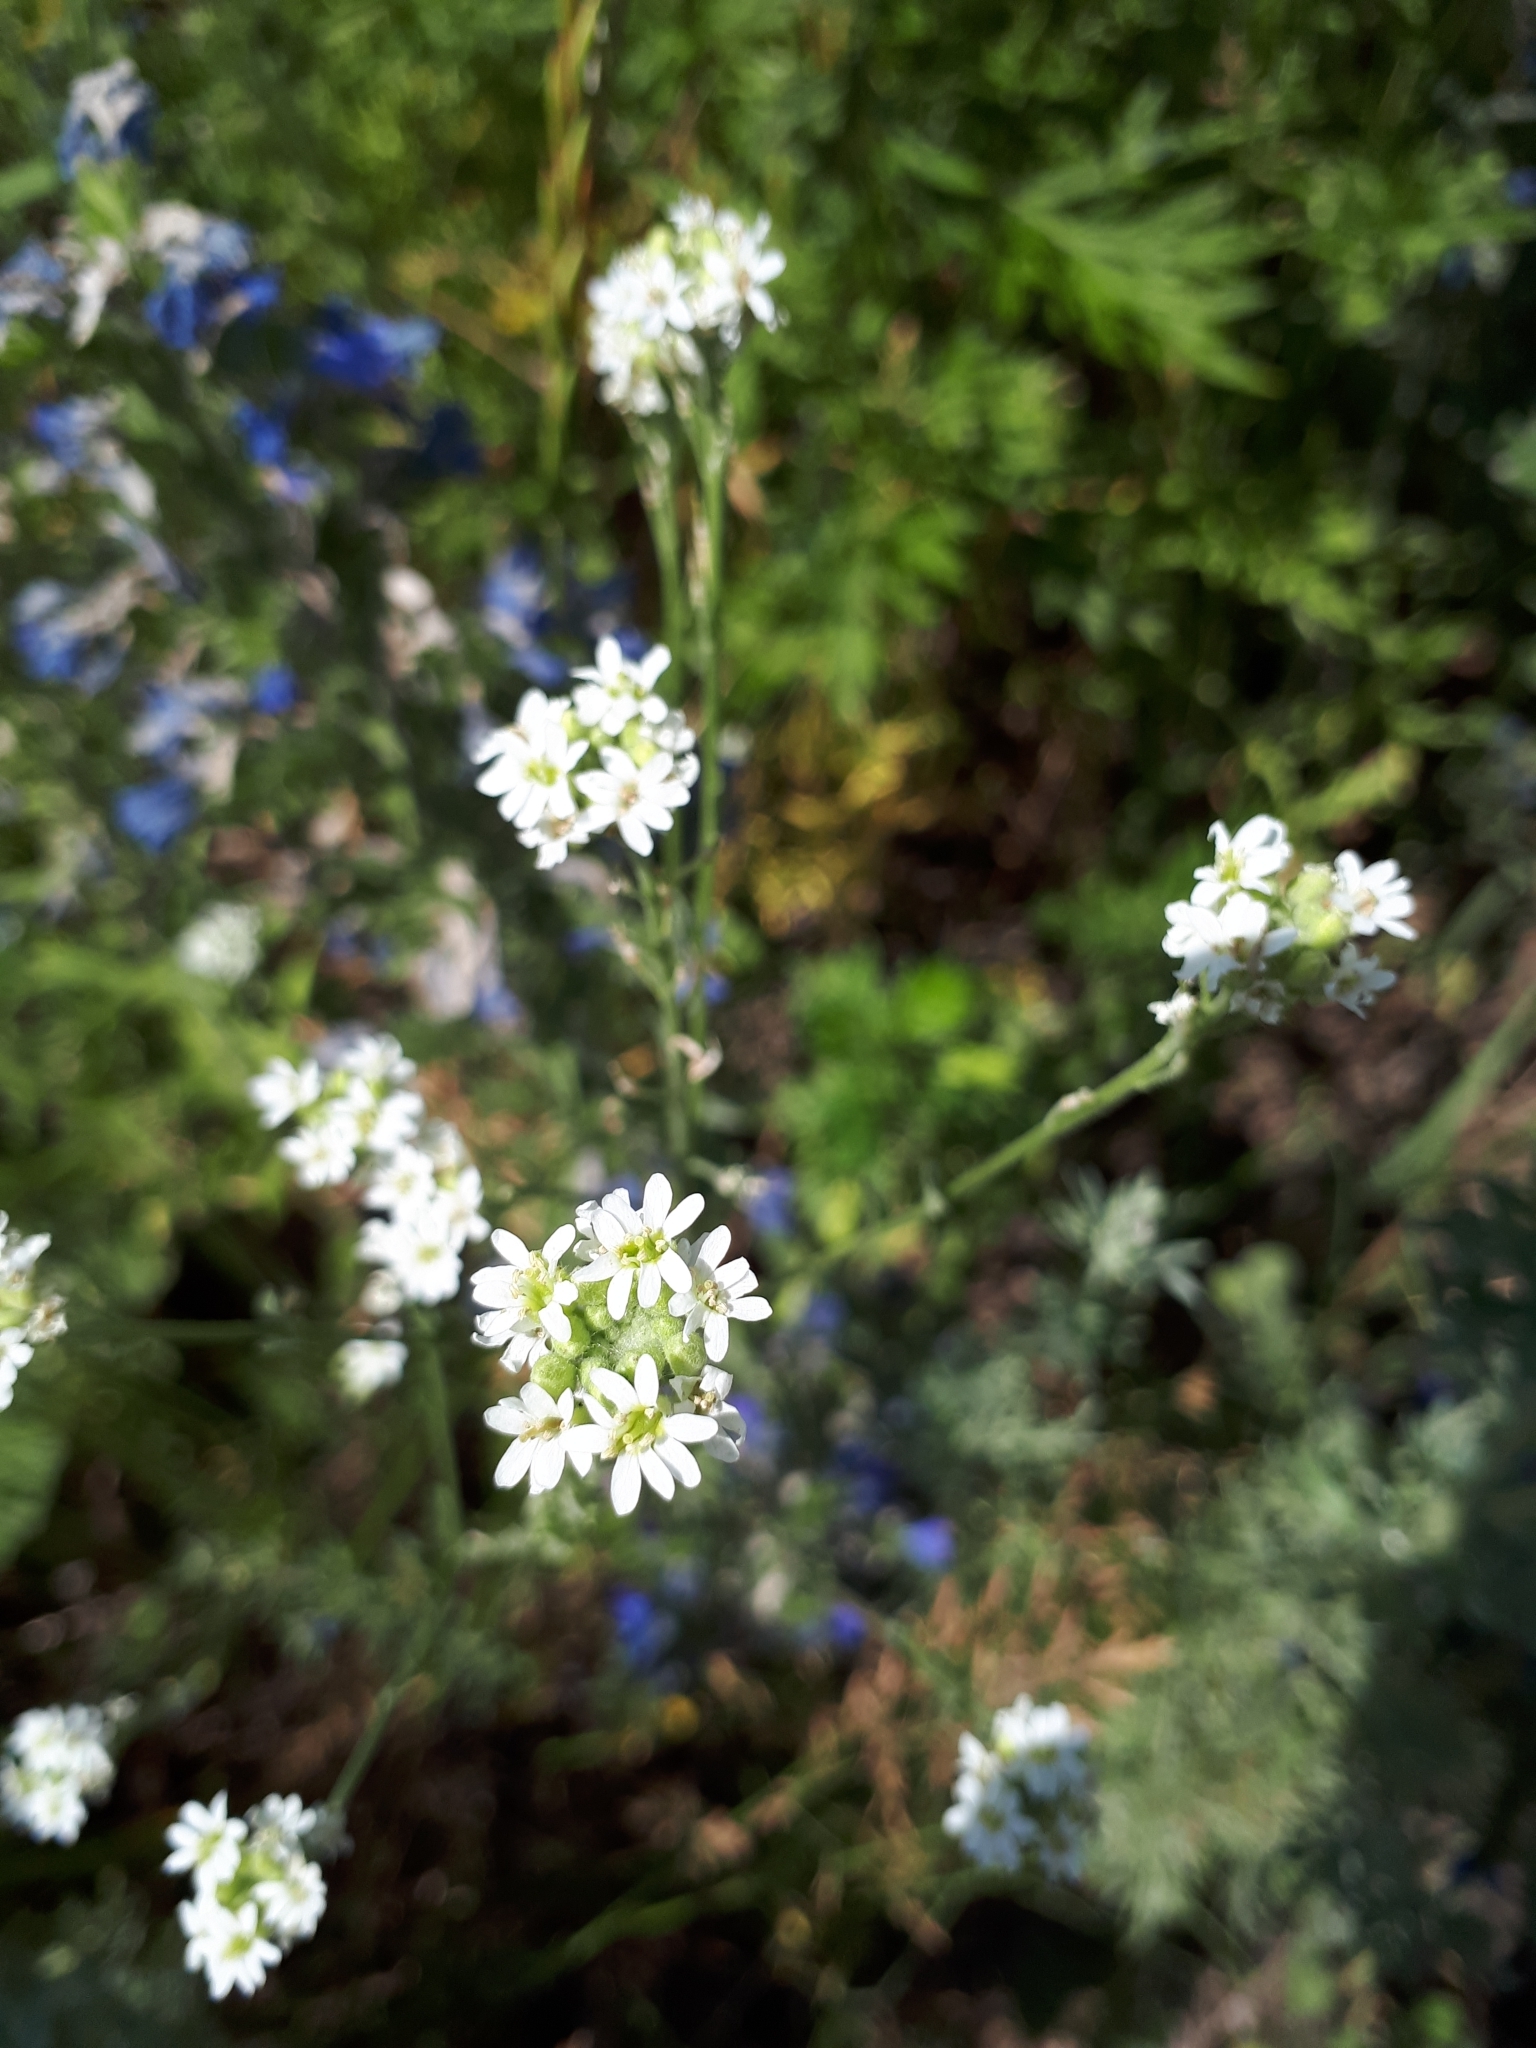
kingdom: Plantae
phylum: Tracheophyta
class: Magnoliopsida
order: Brassicales
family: Brassicaceae
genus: Berteroa
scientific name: Berteroa incana
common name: Hoary alison
